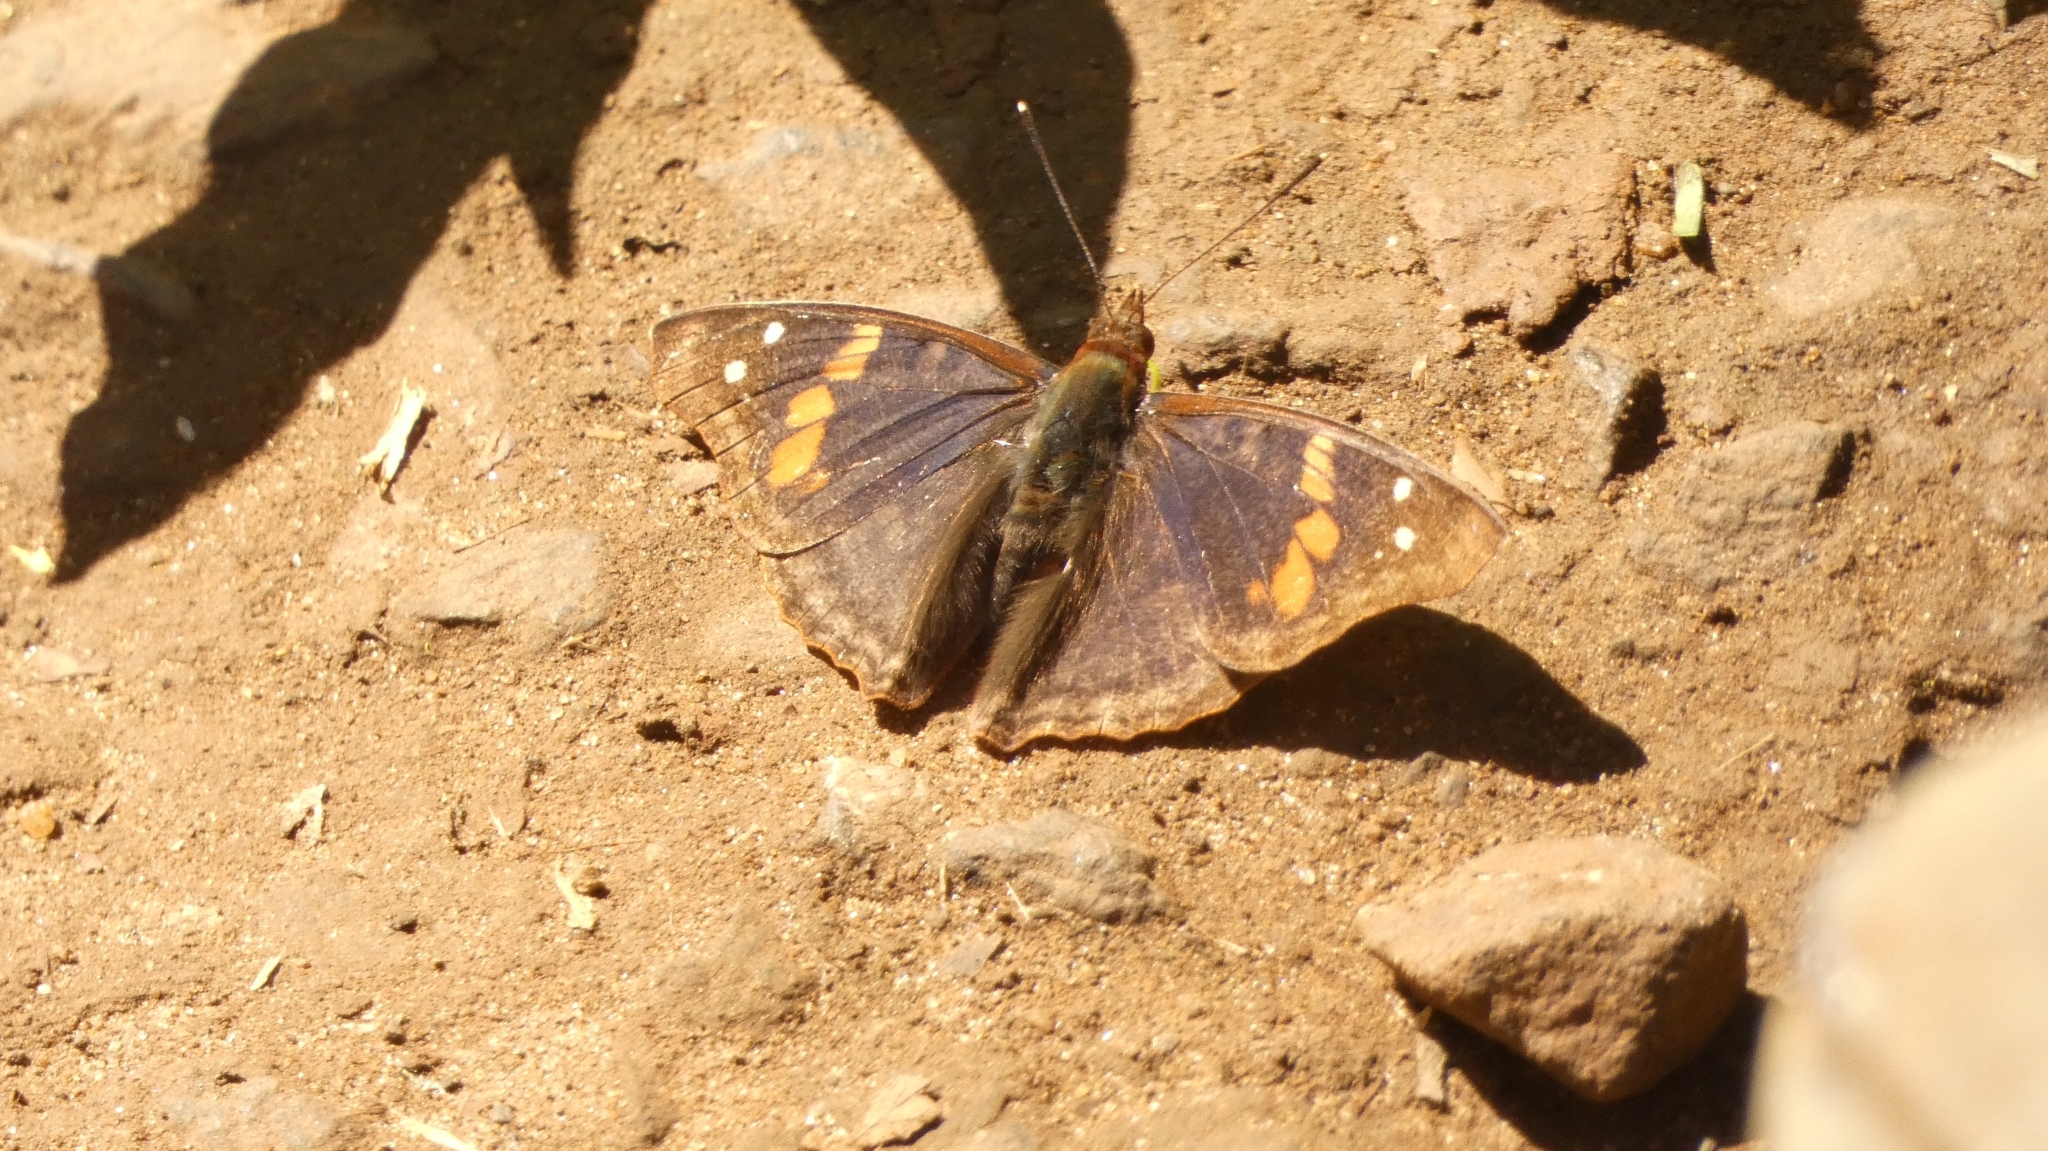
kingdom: Animalia
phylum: Arthropoda
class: Insecta
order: Lepidoptera
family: Nymphalidae
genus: Doxocopa
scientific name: Doxocopa agathina
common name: Agathina emperor
